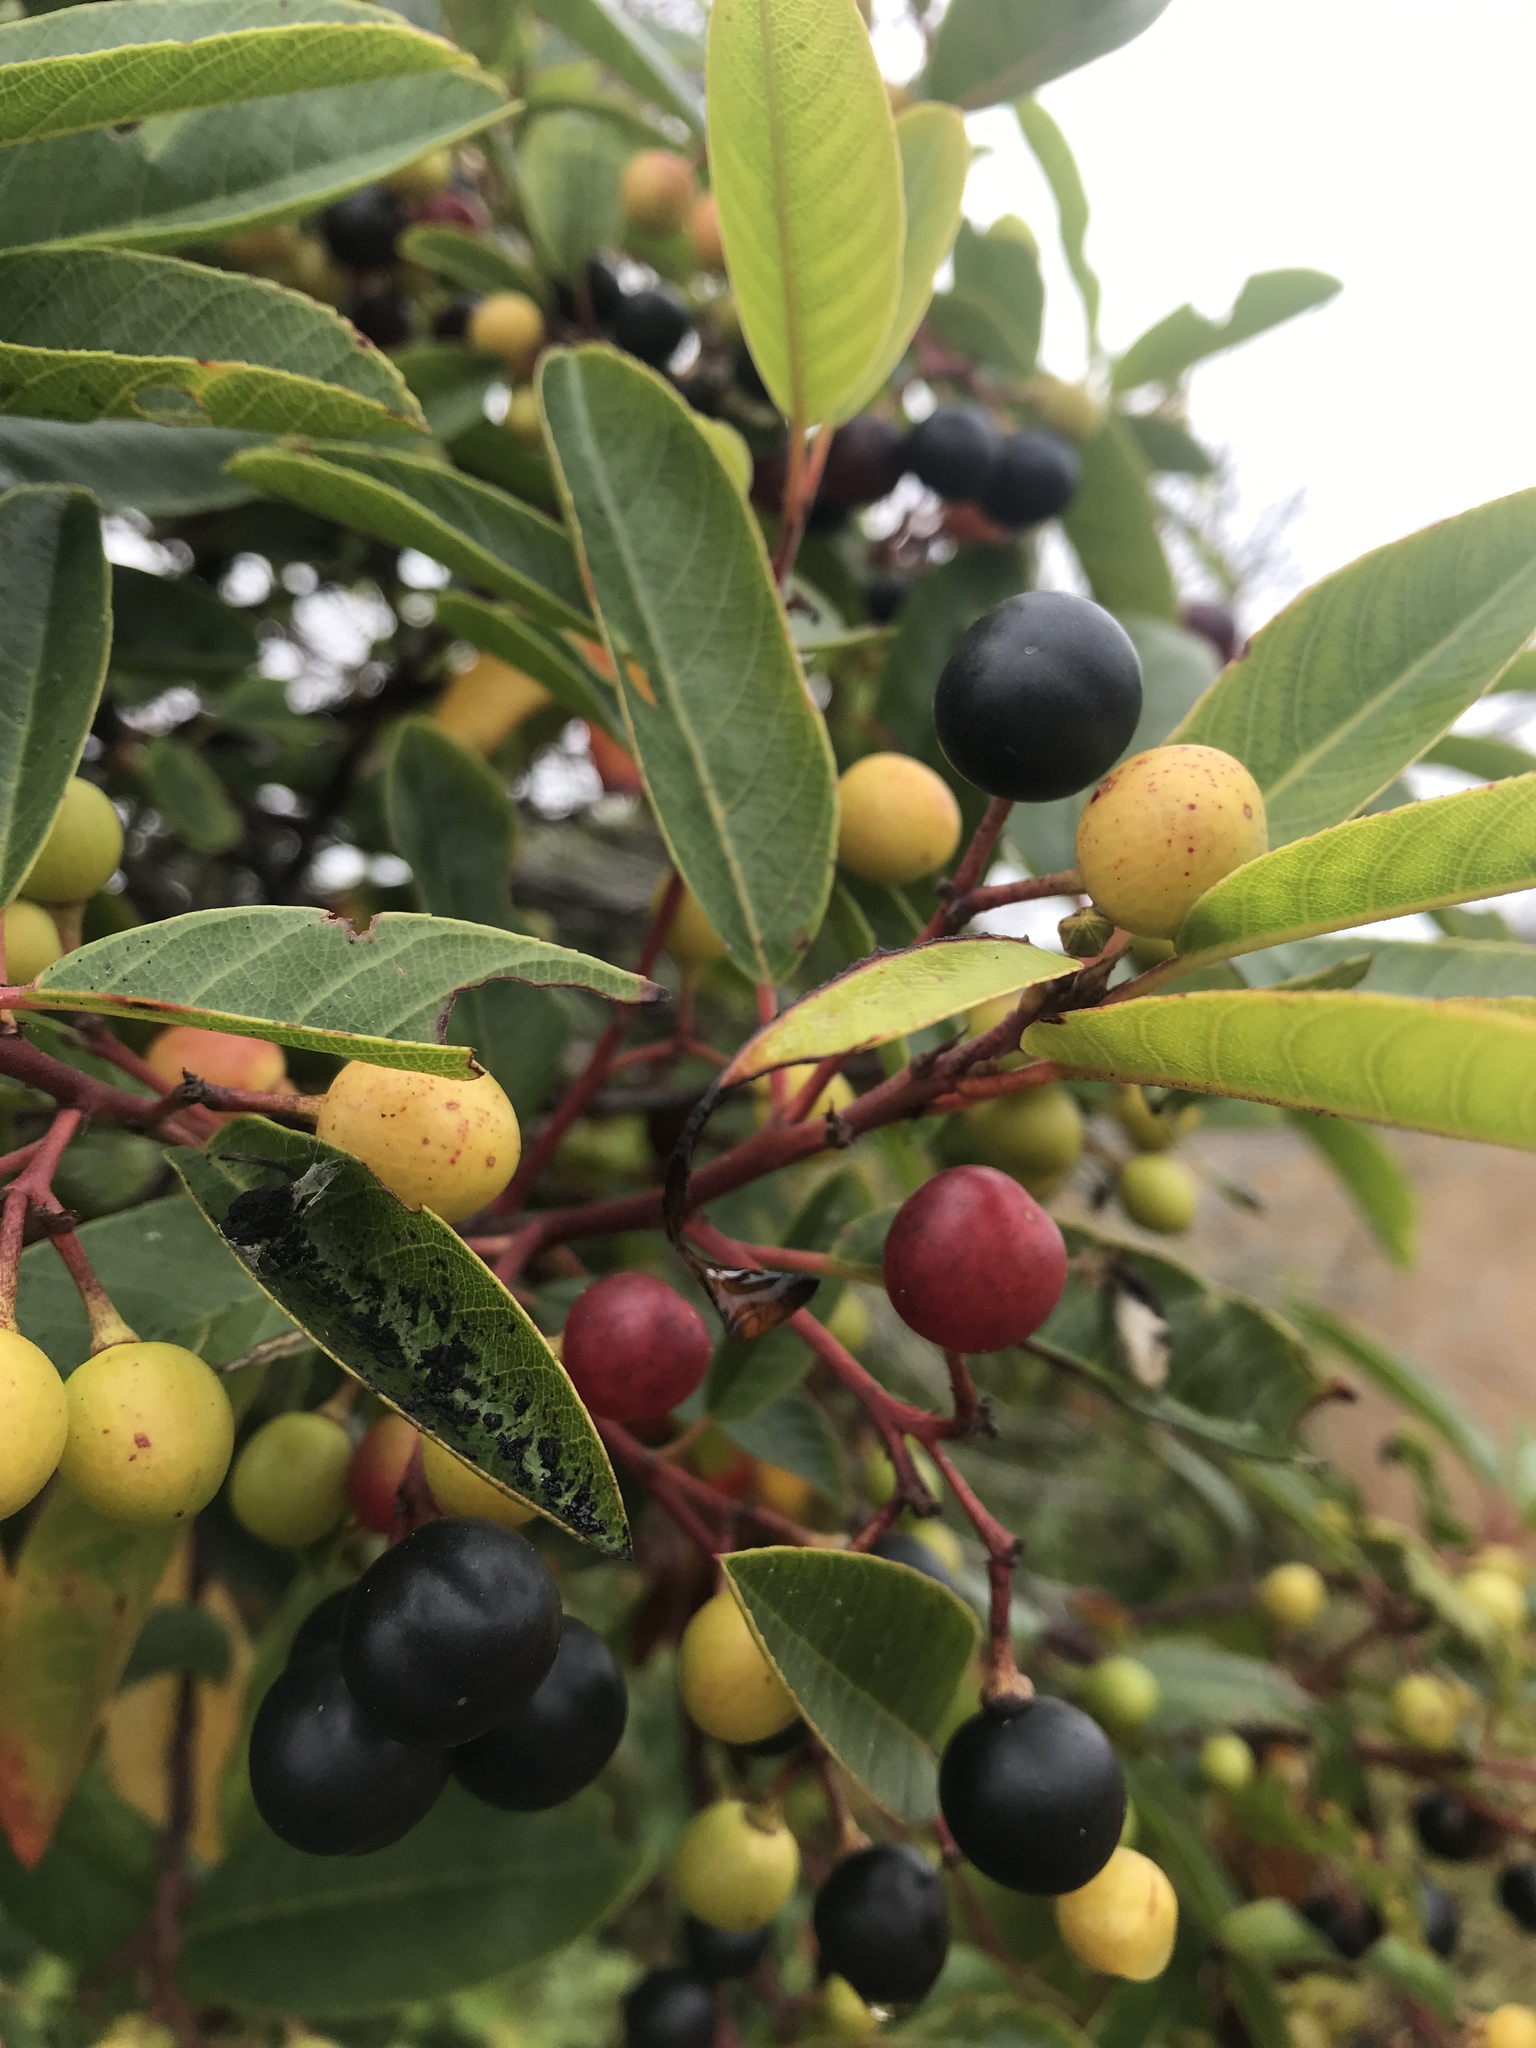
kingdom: Plantae
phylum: Tracheophyta
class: Magnoliopsida
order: Rosales
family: Rhamnaceae
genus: Frangula
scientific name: Frangula californica
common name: California buckthorn
